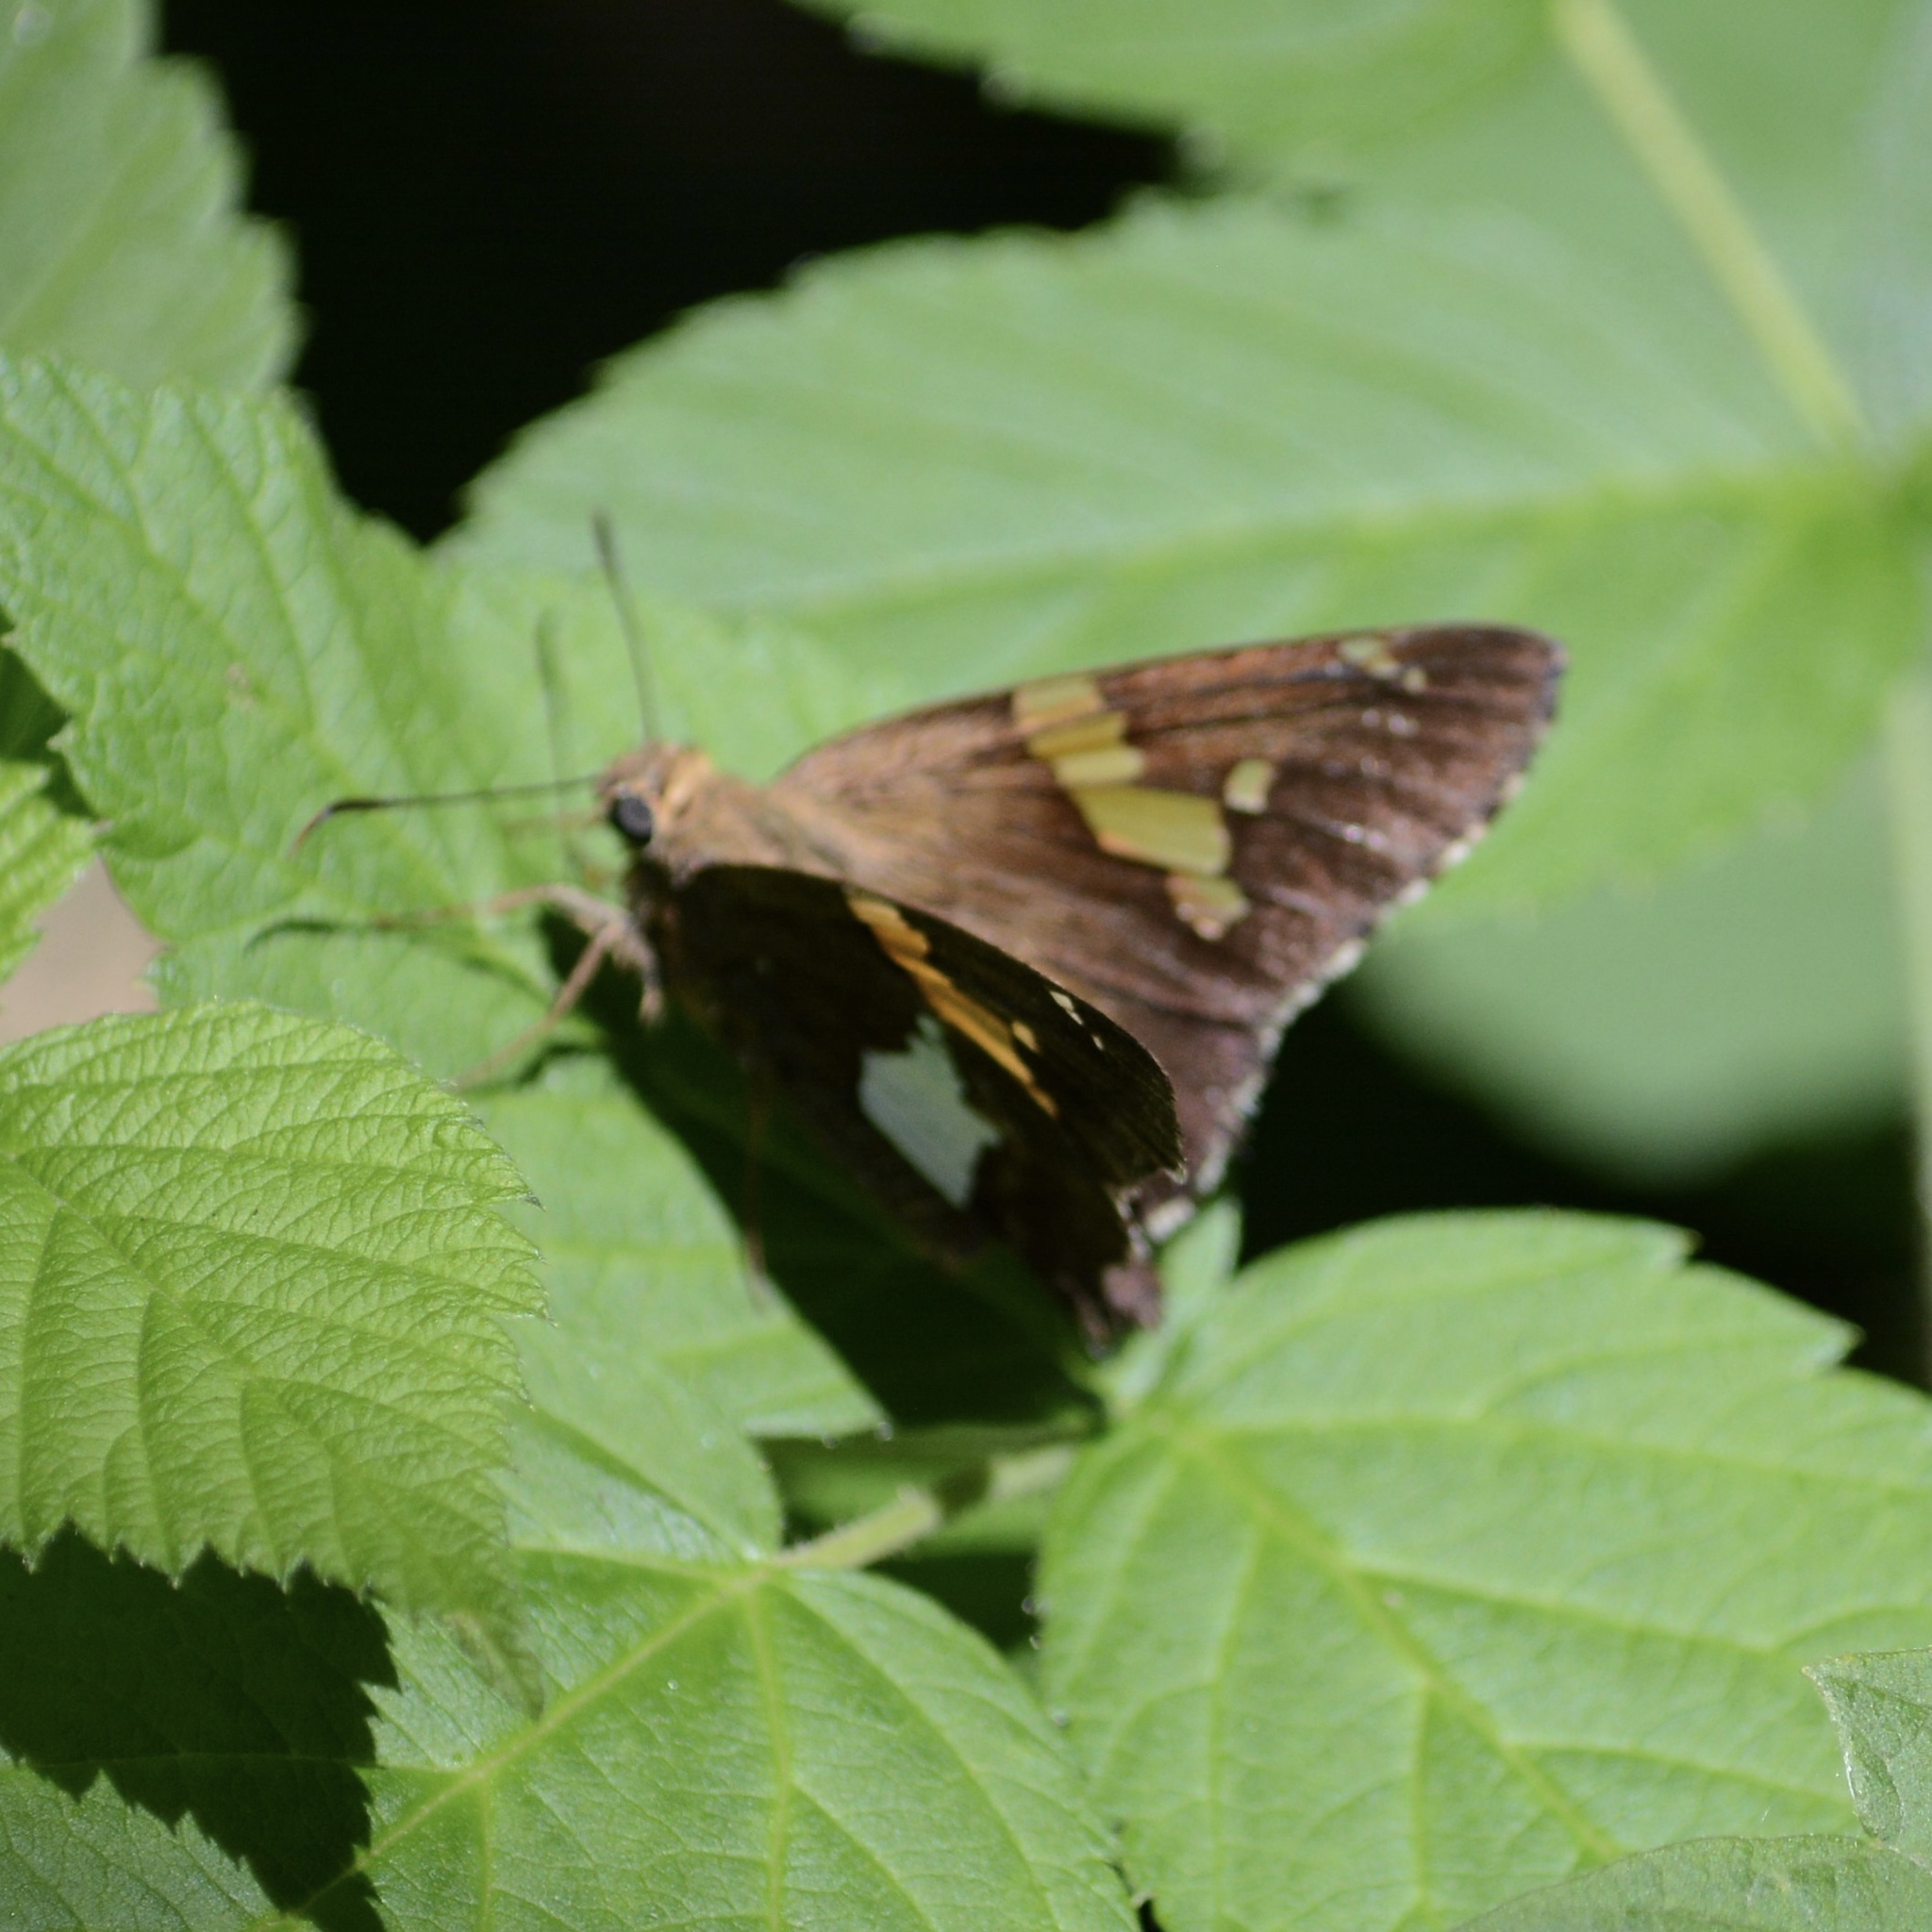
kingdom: Animalia
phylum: Arthropoda
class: Insecta
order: Lepidoptera
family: Hesperiidae
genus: Epargyreus
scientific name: Epargyreus clarus
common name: Silver-spotted skipper
